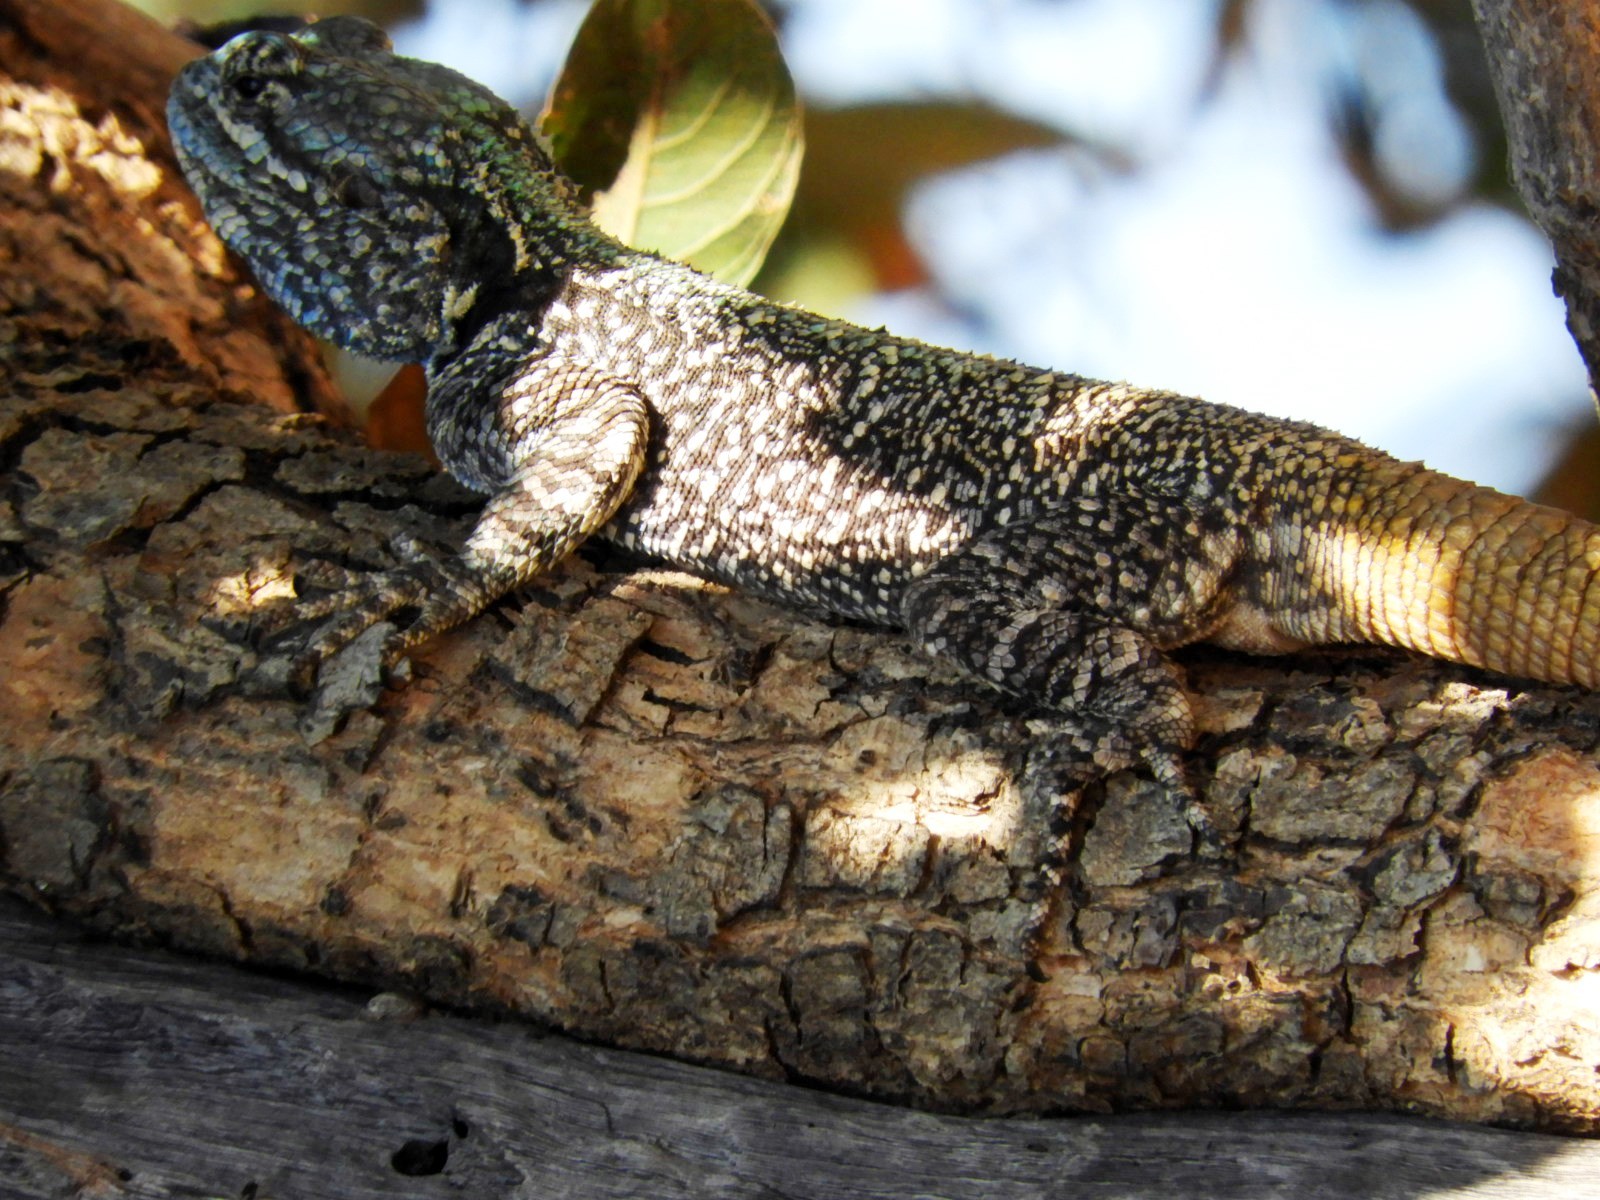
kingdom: Animalia
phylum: Chordata
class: Squamata
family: Agamidae
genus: Acanthocercus
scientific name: Acanthocercus atricollis
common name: Southern tree agama
